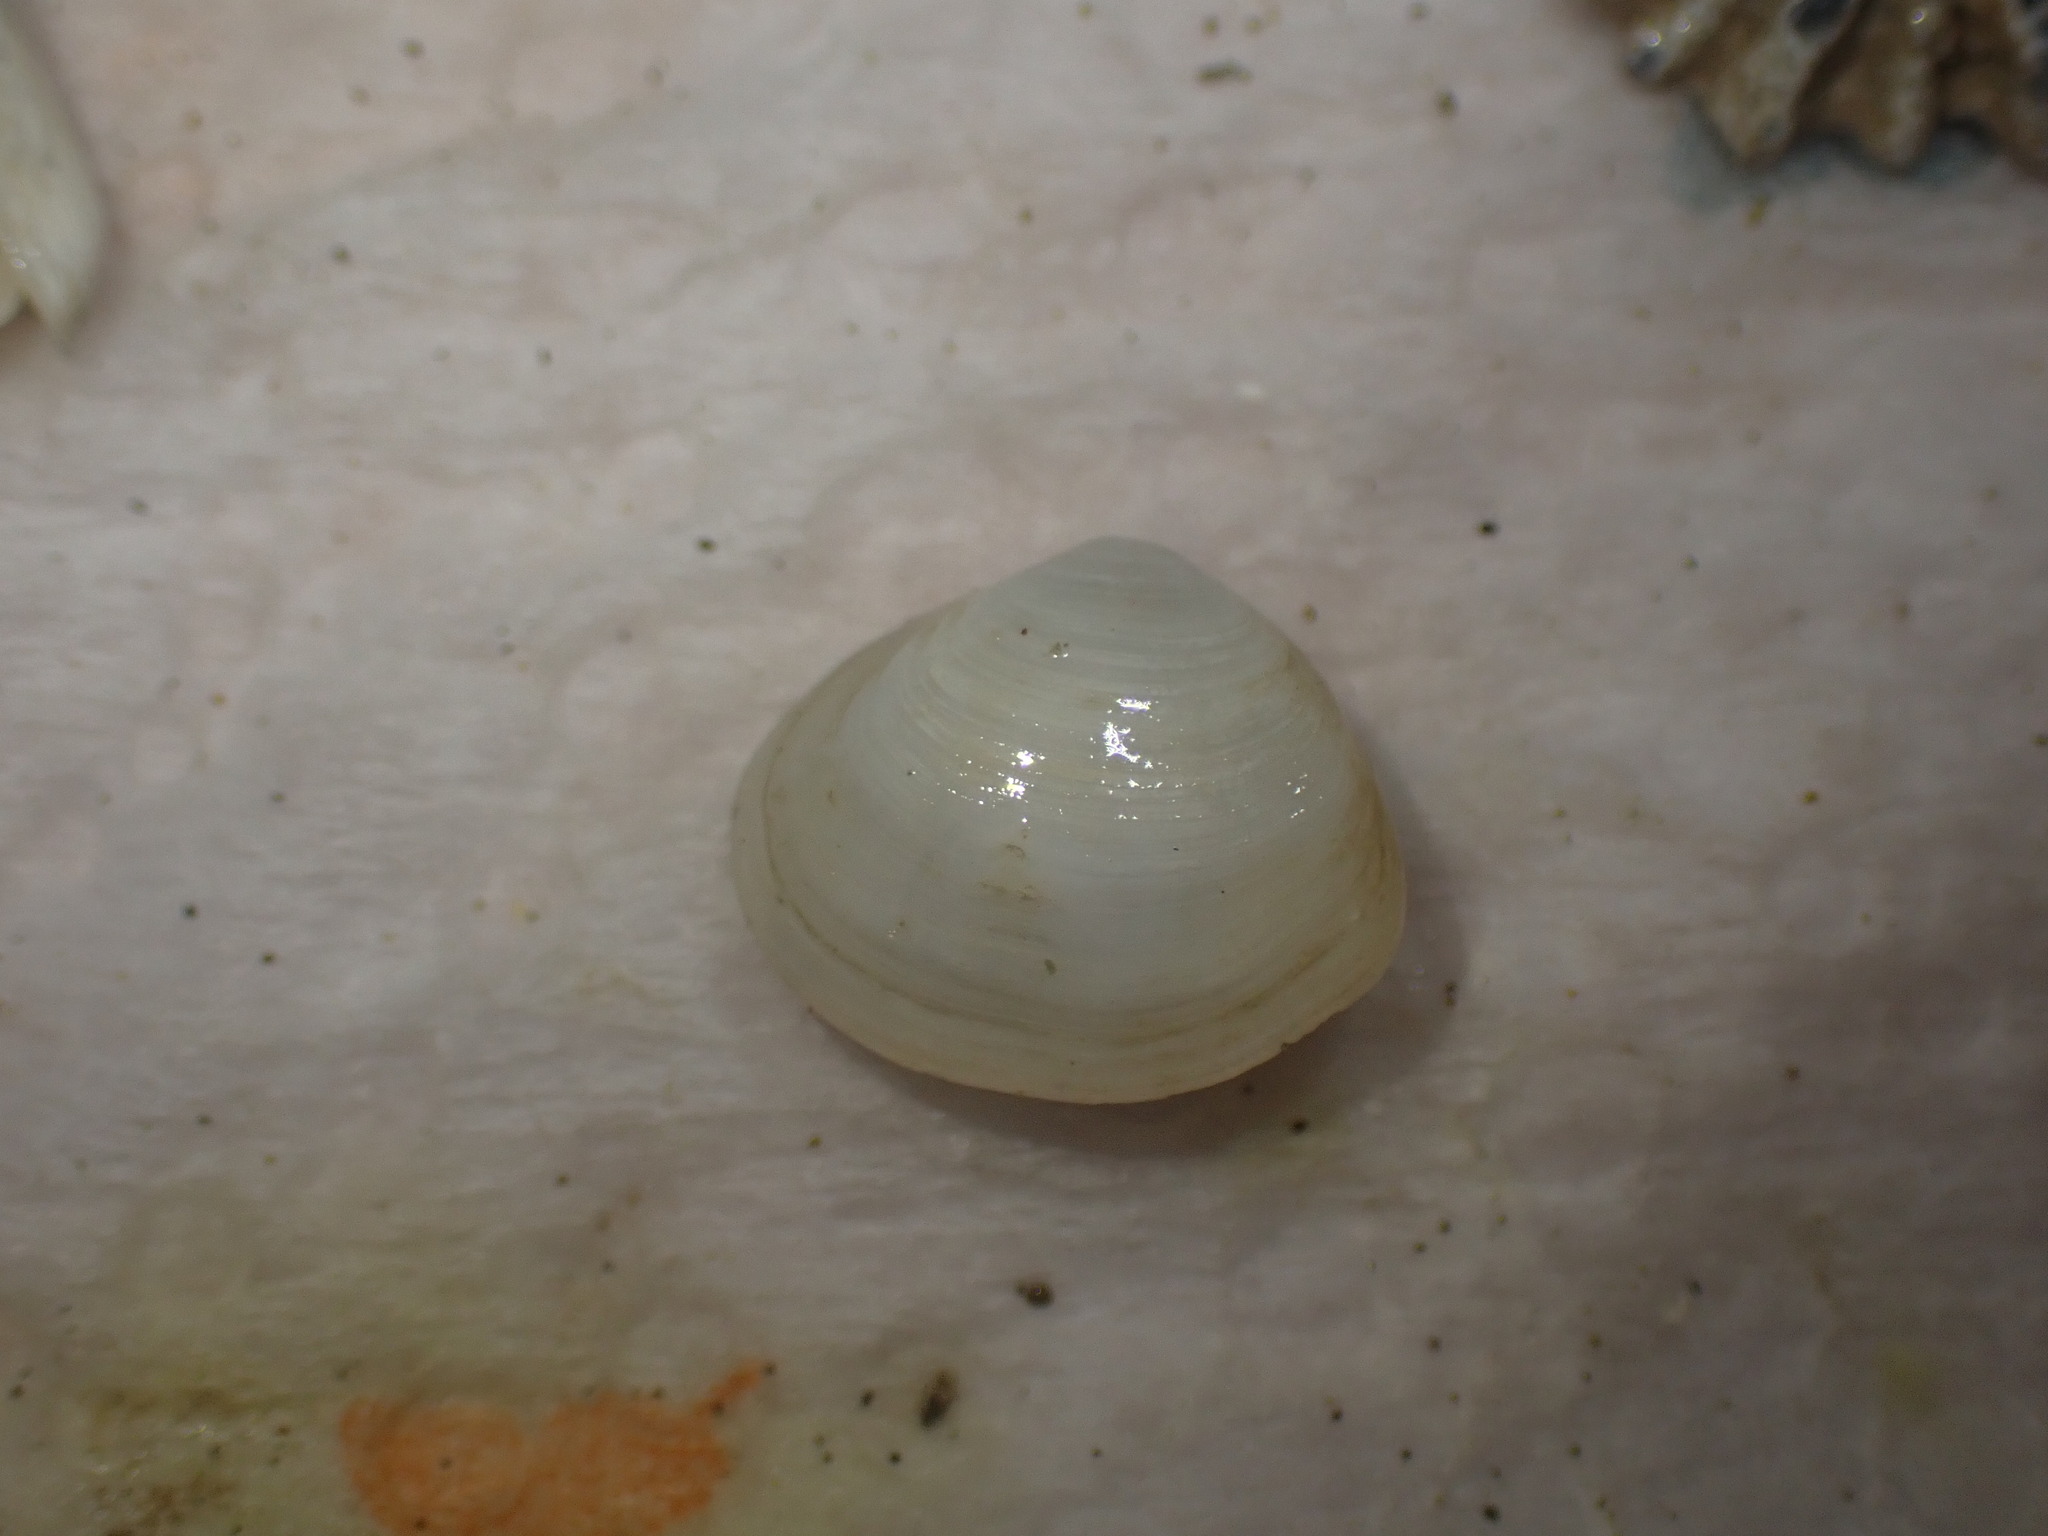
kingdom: Animalia
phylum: Mollusca
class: Bivalvia
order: Cardiida
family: Semelidae
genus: Leptomya
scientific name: Leptomya retiaria
